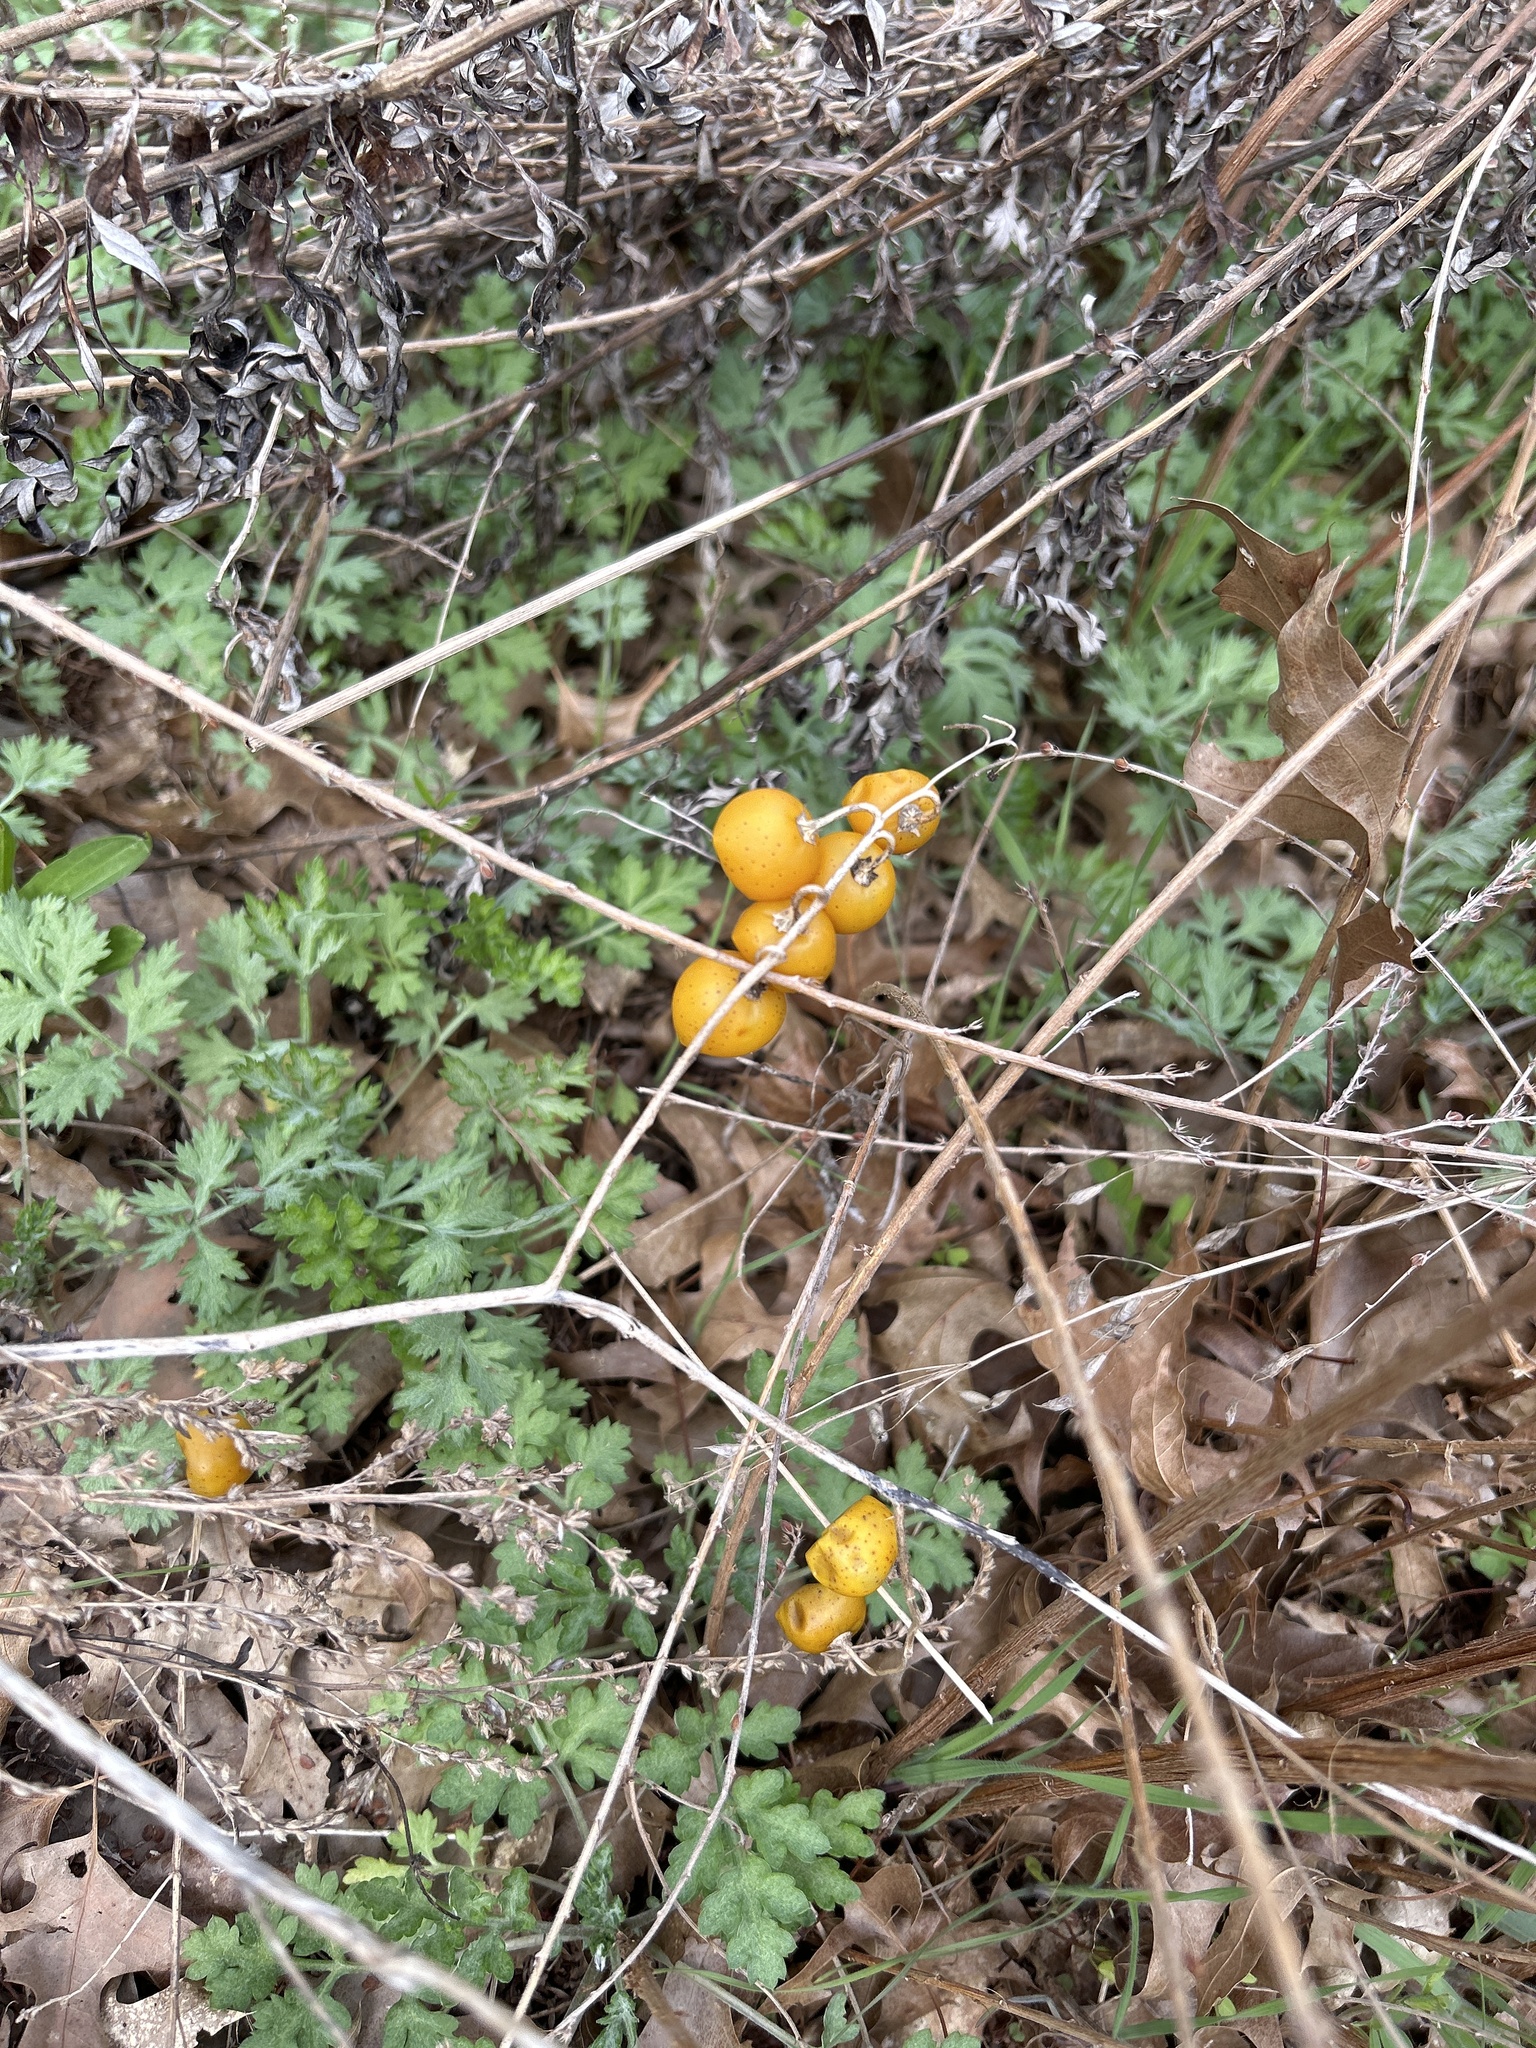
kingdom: Plantae
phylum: Tracheophyta
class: Magnoliopsida
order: Solanales
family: Solanaceae
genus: Solanum
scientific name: Solanum carolinense
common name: Horse-nettle
